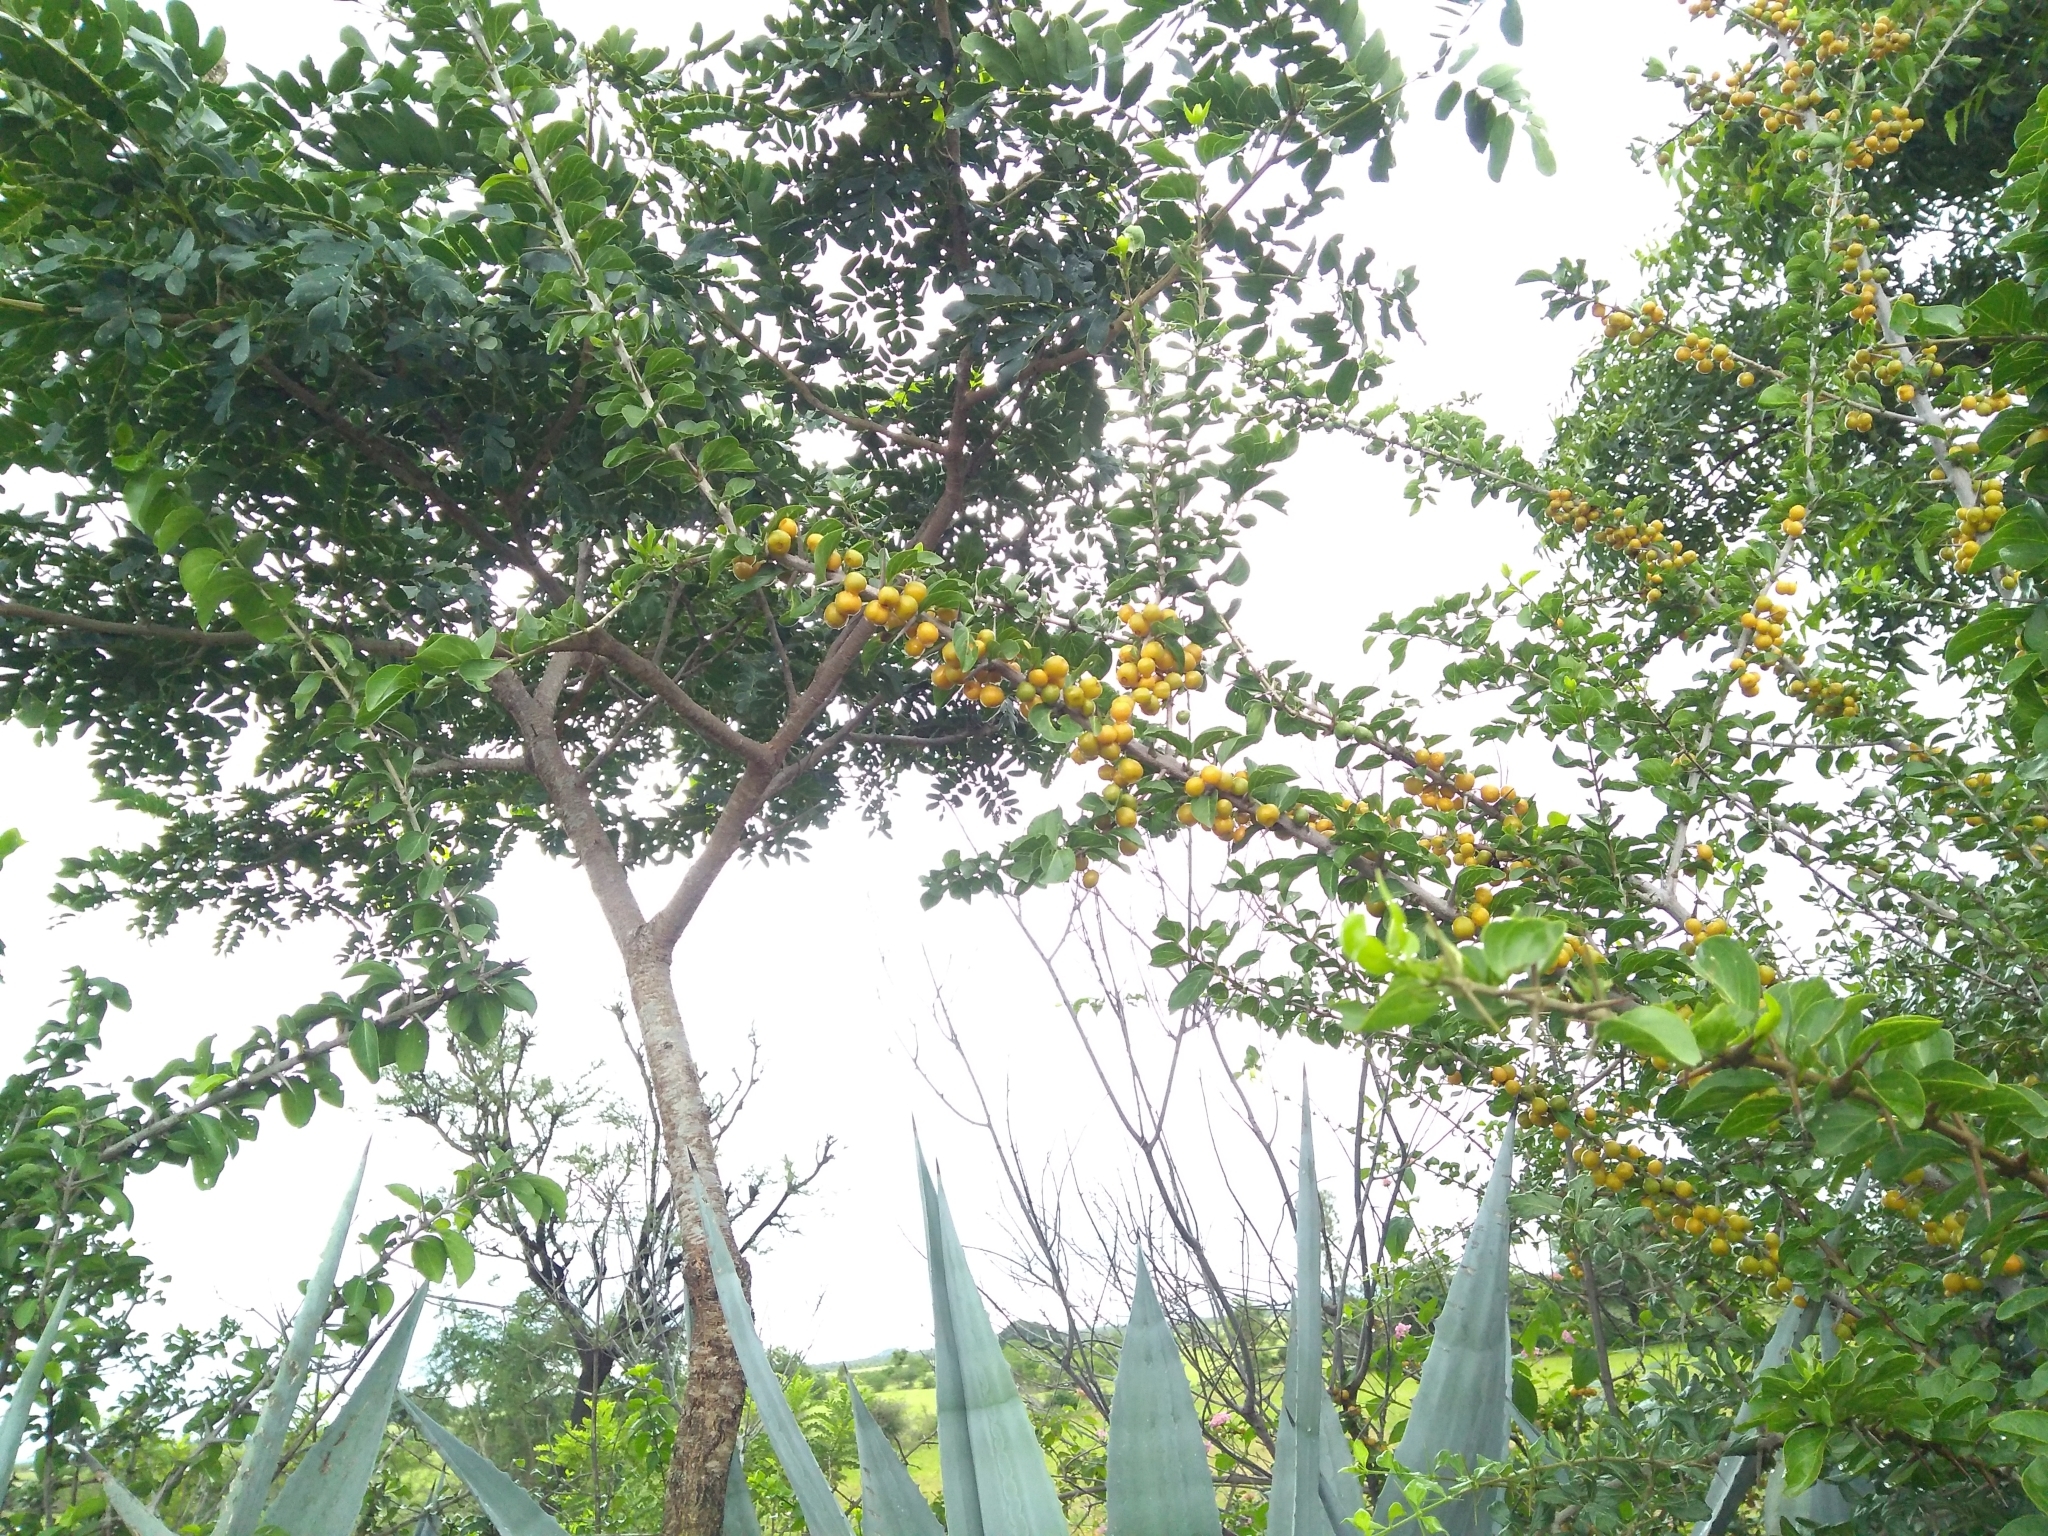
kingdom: Plantae
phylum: Tracheophyta
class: Magnoliopsida
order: Gentianales
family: Rubiaceae
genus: Canthium
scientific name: Canthium coromandelicum
